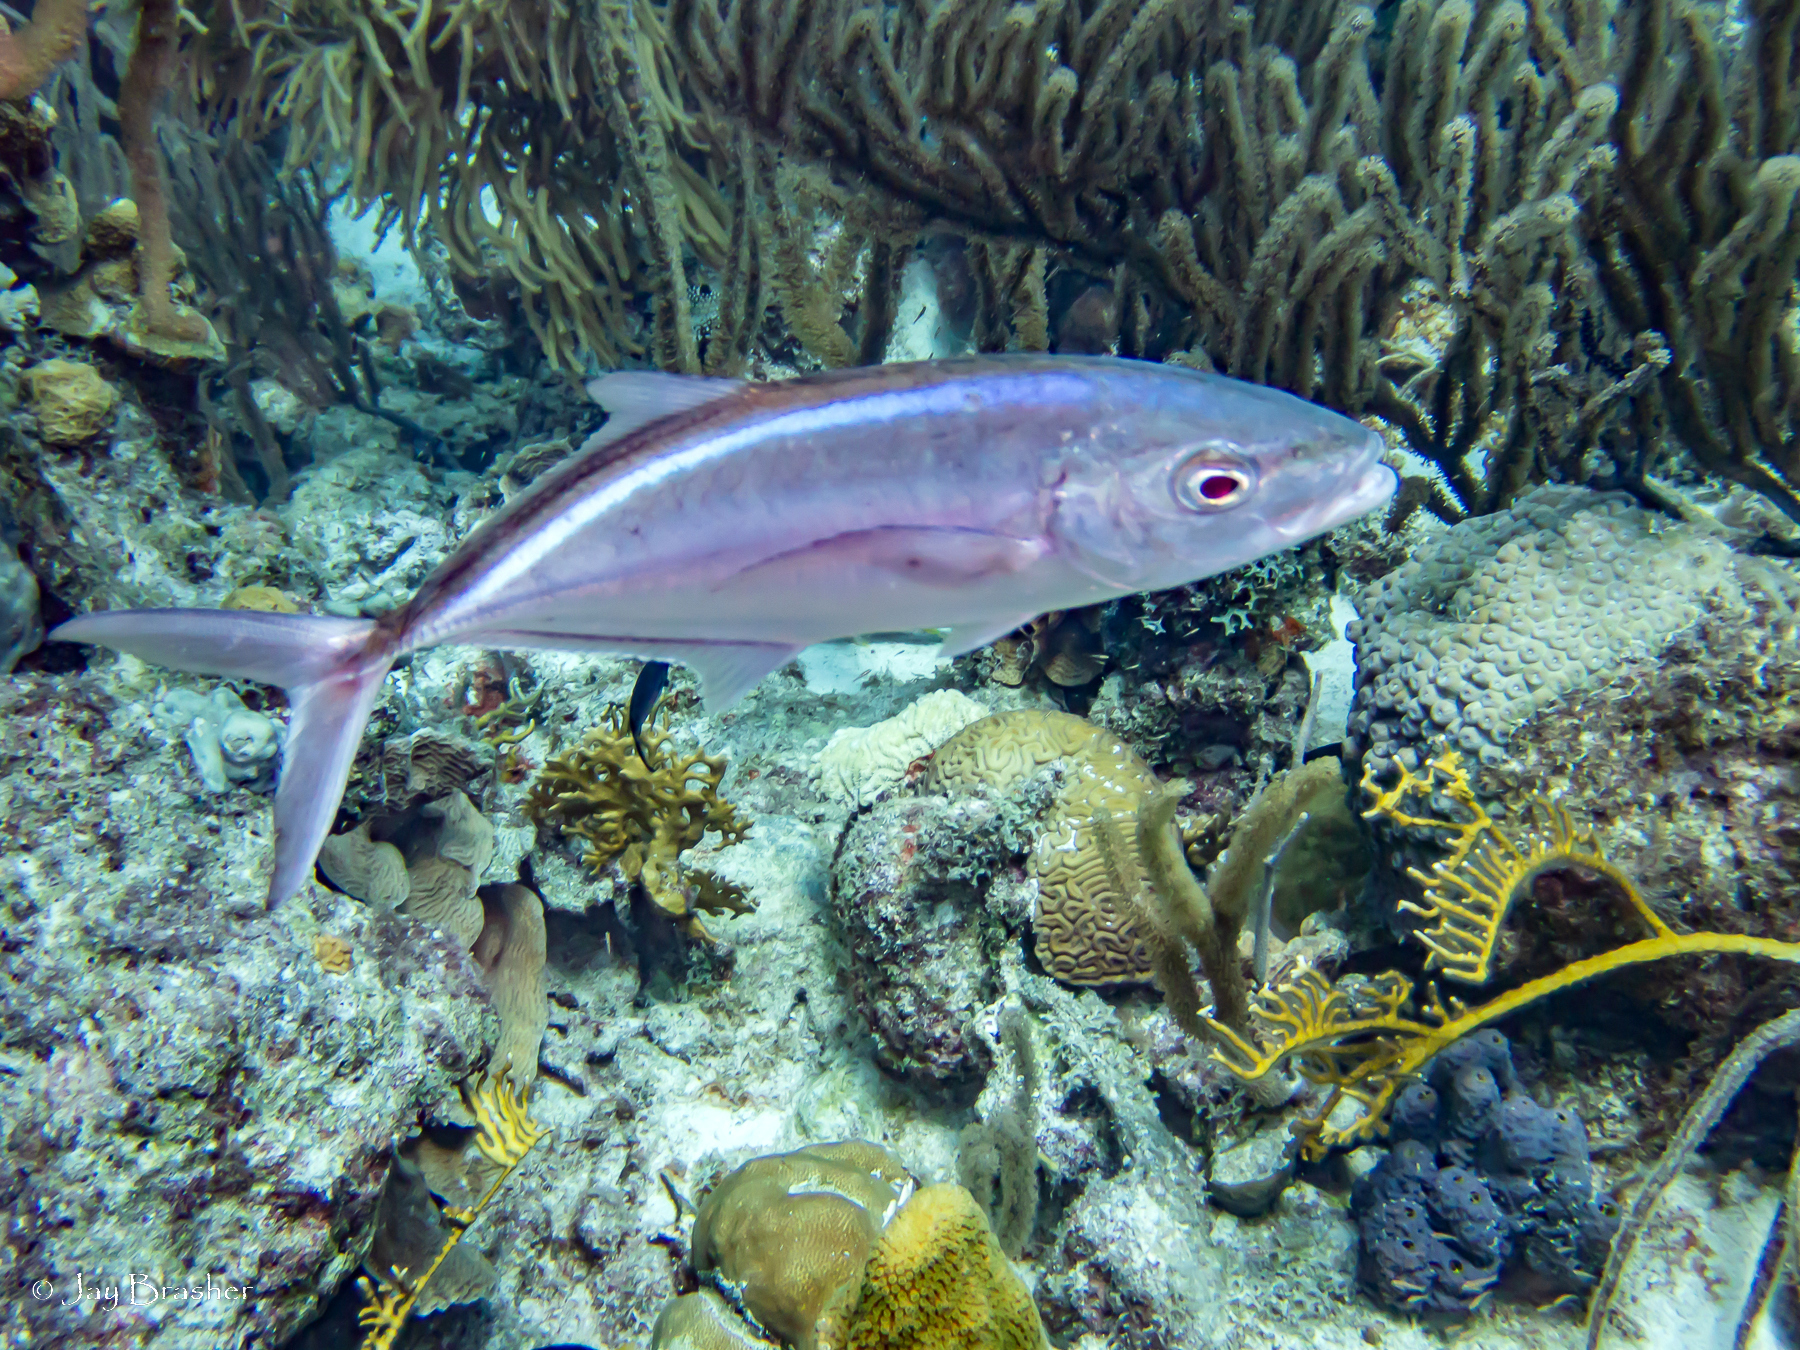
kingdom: Animalia
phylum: Chordata
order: Perciformes
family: Carangidae
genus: Caranx
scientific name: Caranx ruber
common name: Bar jack
